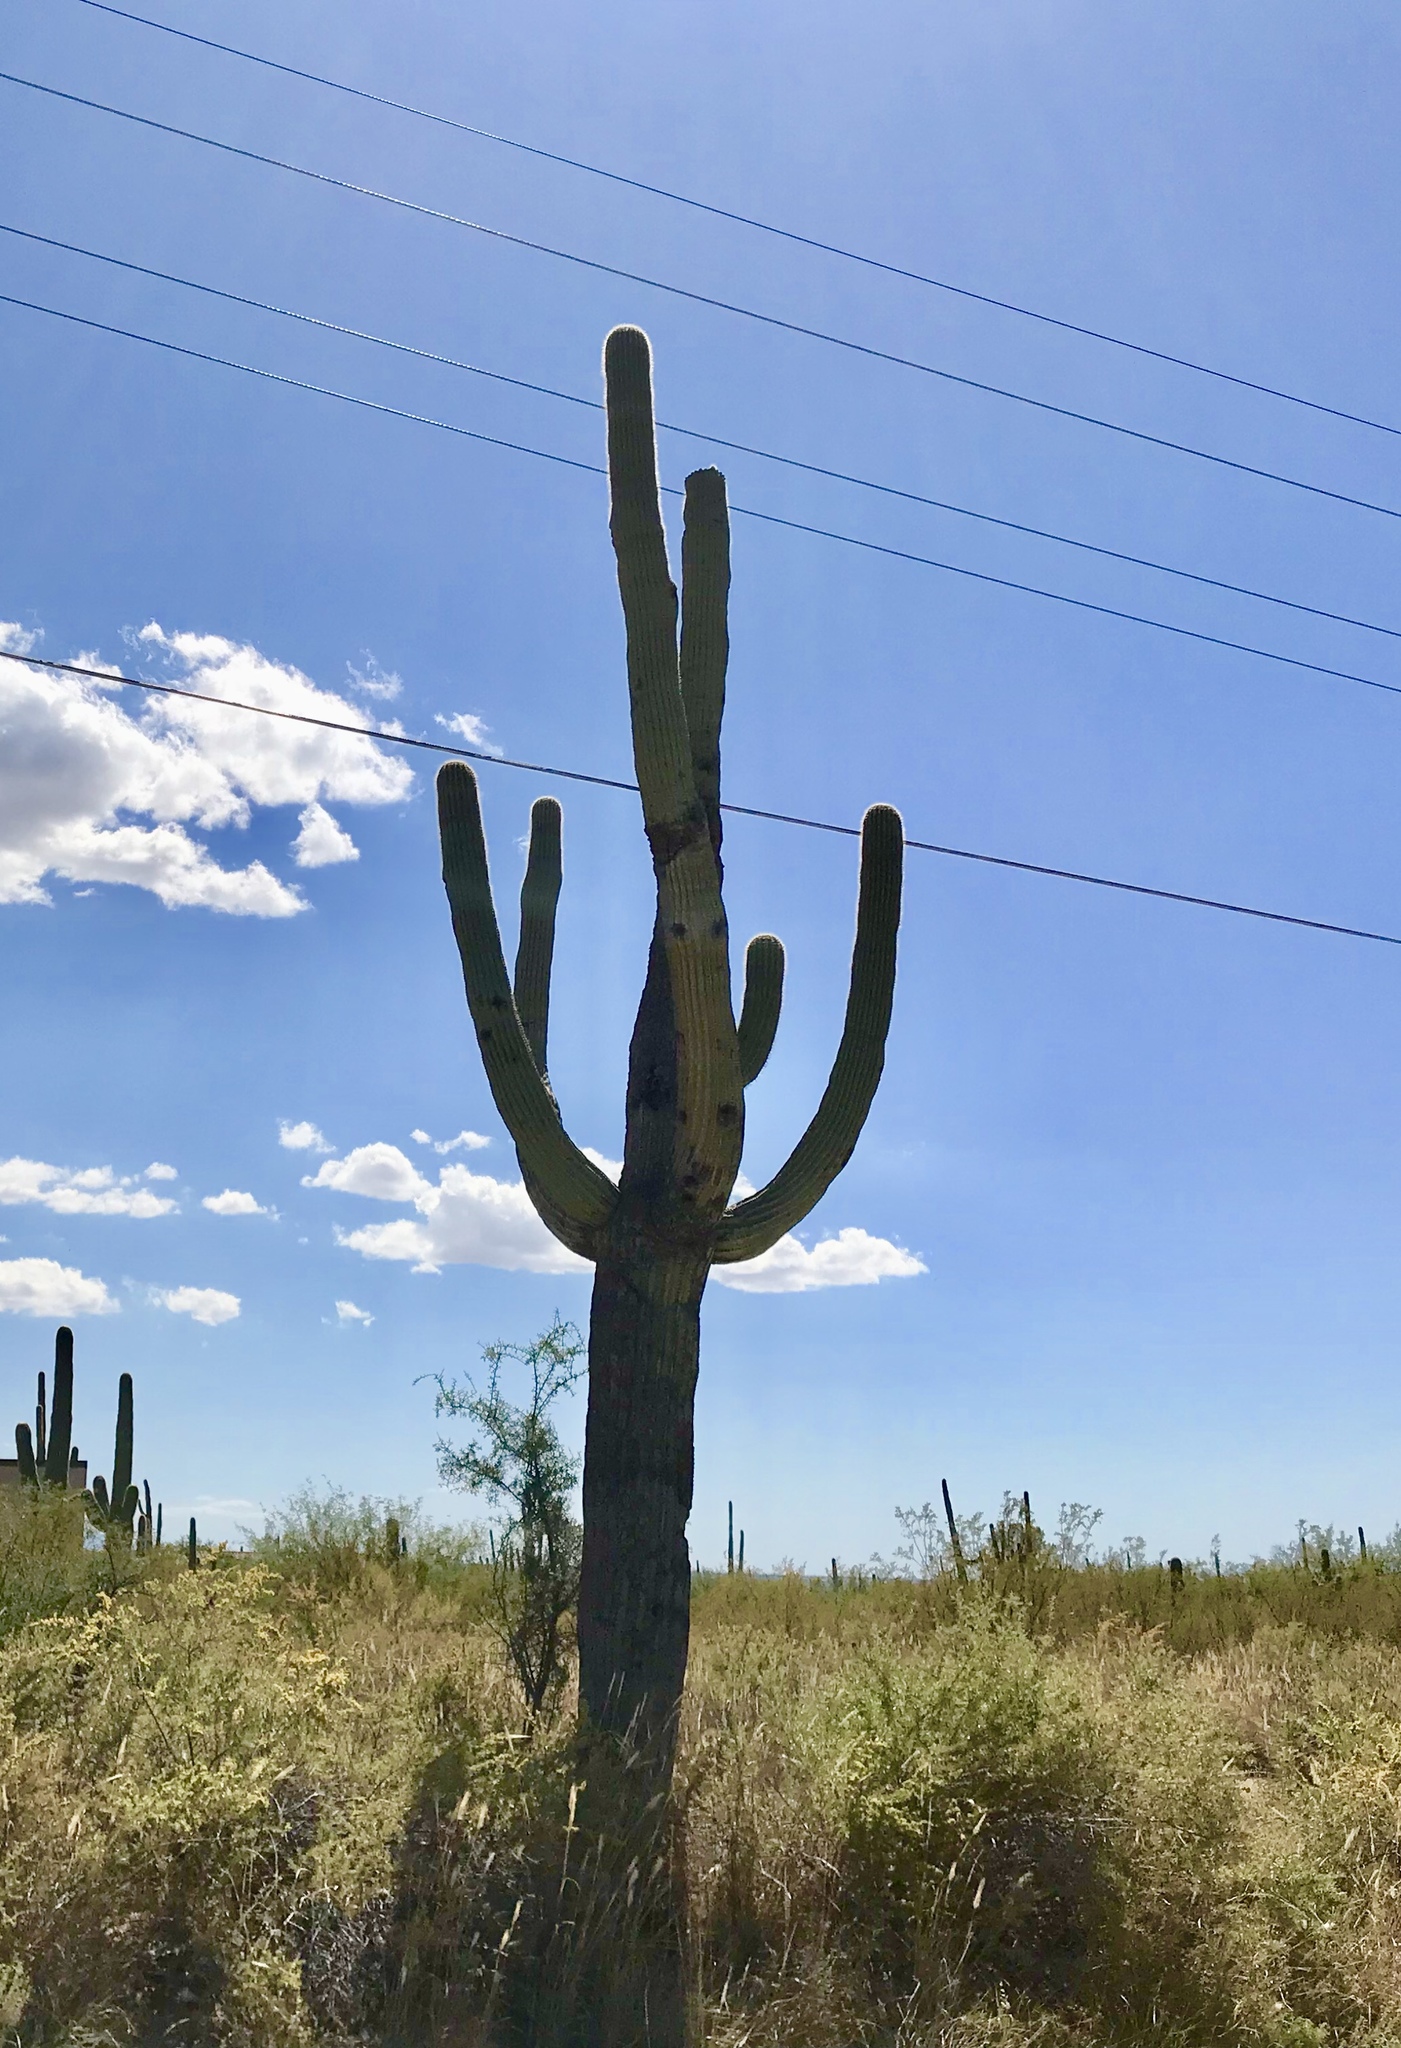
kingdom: Plantae
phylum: Tracheophyta
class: Magnoliopsida
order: Caryophyllales
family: Cactaceae
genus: Carnegiea
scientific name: Carnegiea gigantea
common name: Saguaro
